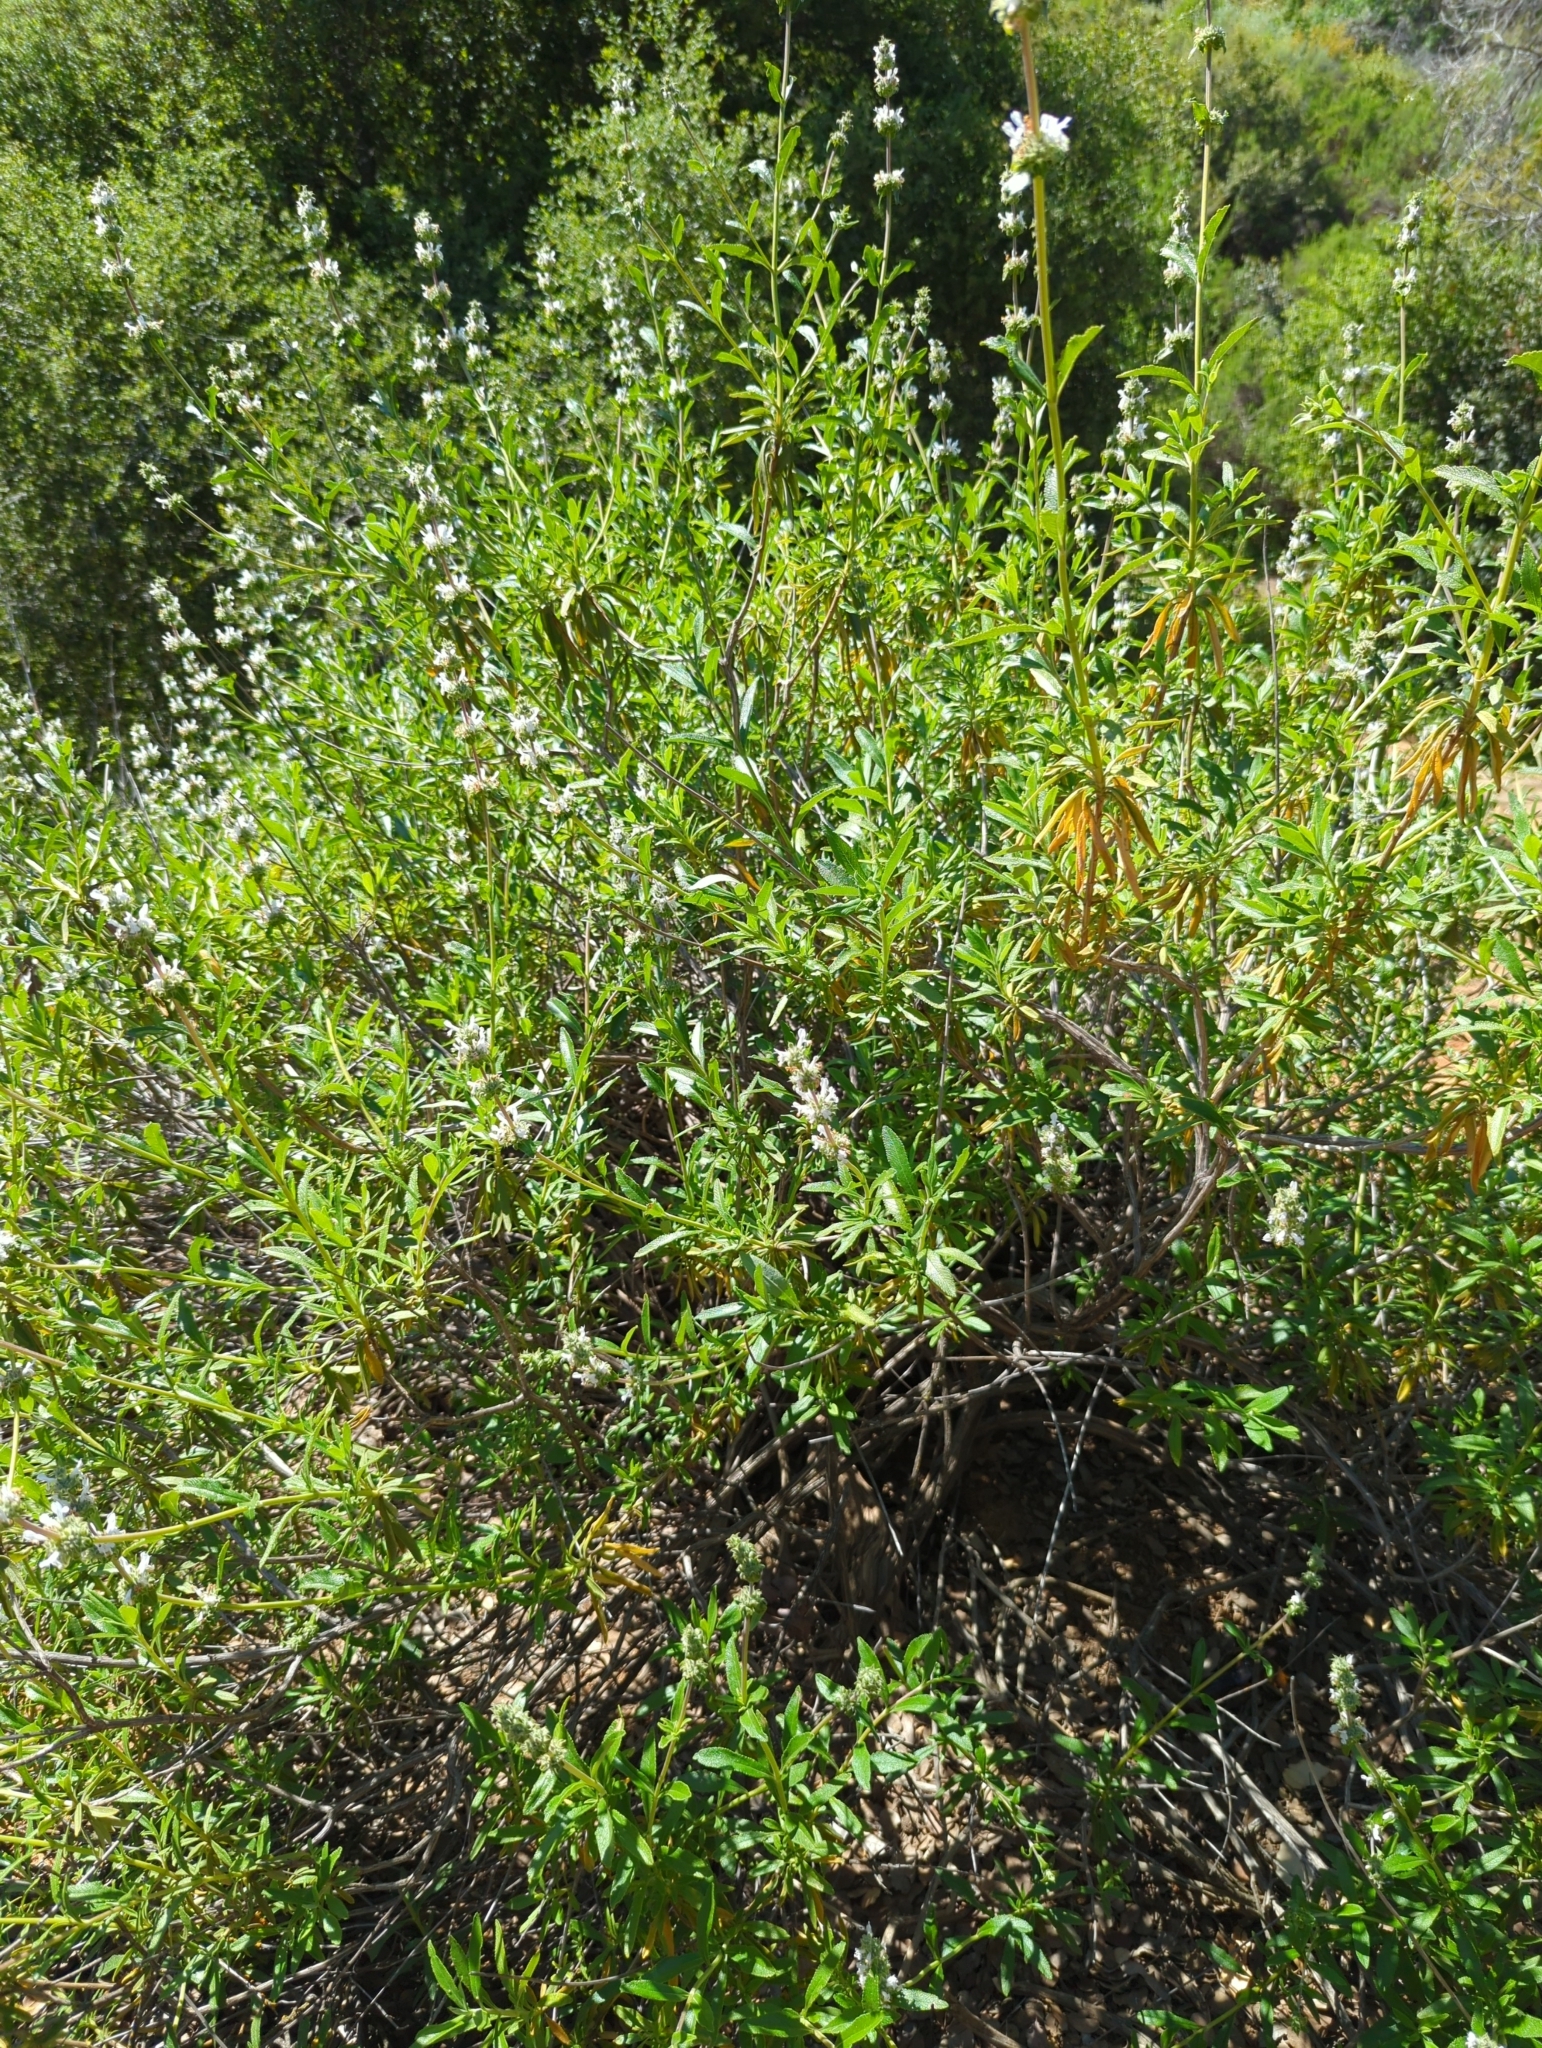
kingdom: Plantae
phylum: Tracheophyta
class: Magnoliopsida
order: Lamiales
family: Lamiaceae
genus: Salvia
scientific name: Salvia mellifera
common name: Black sage
